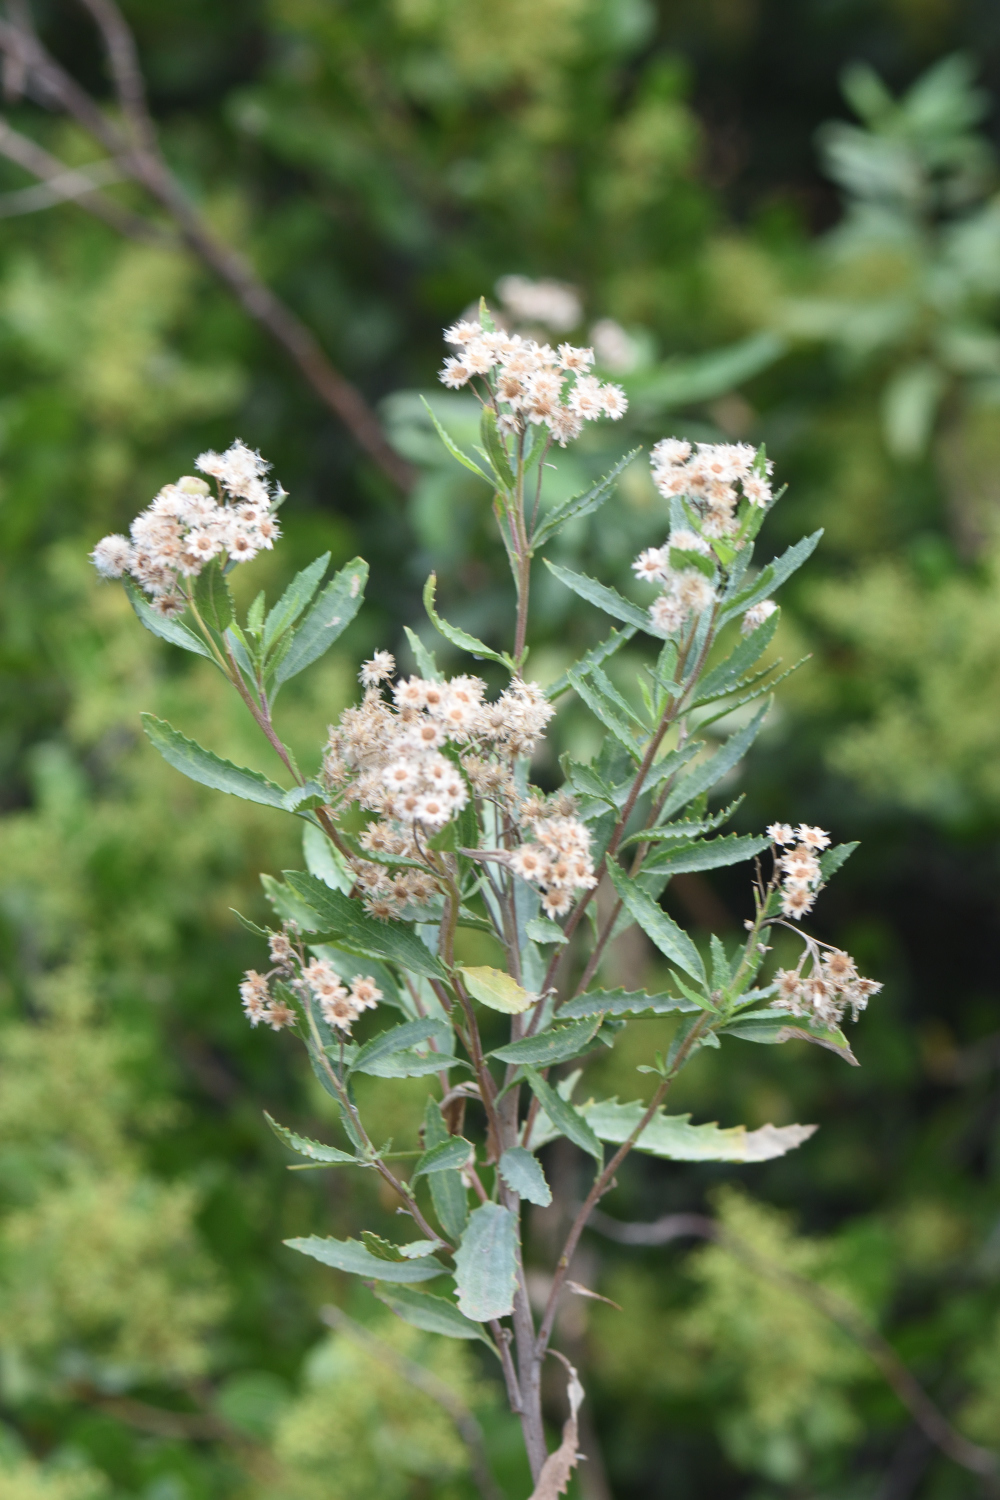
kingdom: Plantae
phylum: Tracheophyta
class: Magnoliopsida
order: Asterales
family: Asteraceae
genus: Nidorella
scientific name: Nidorella ivifolia
